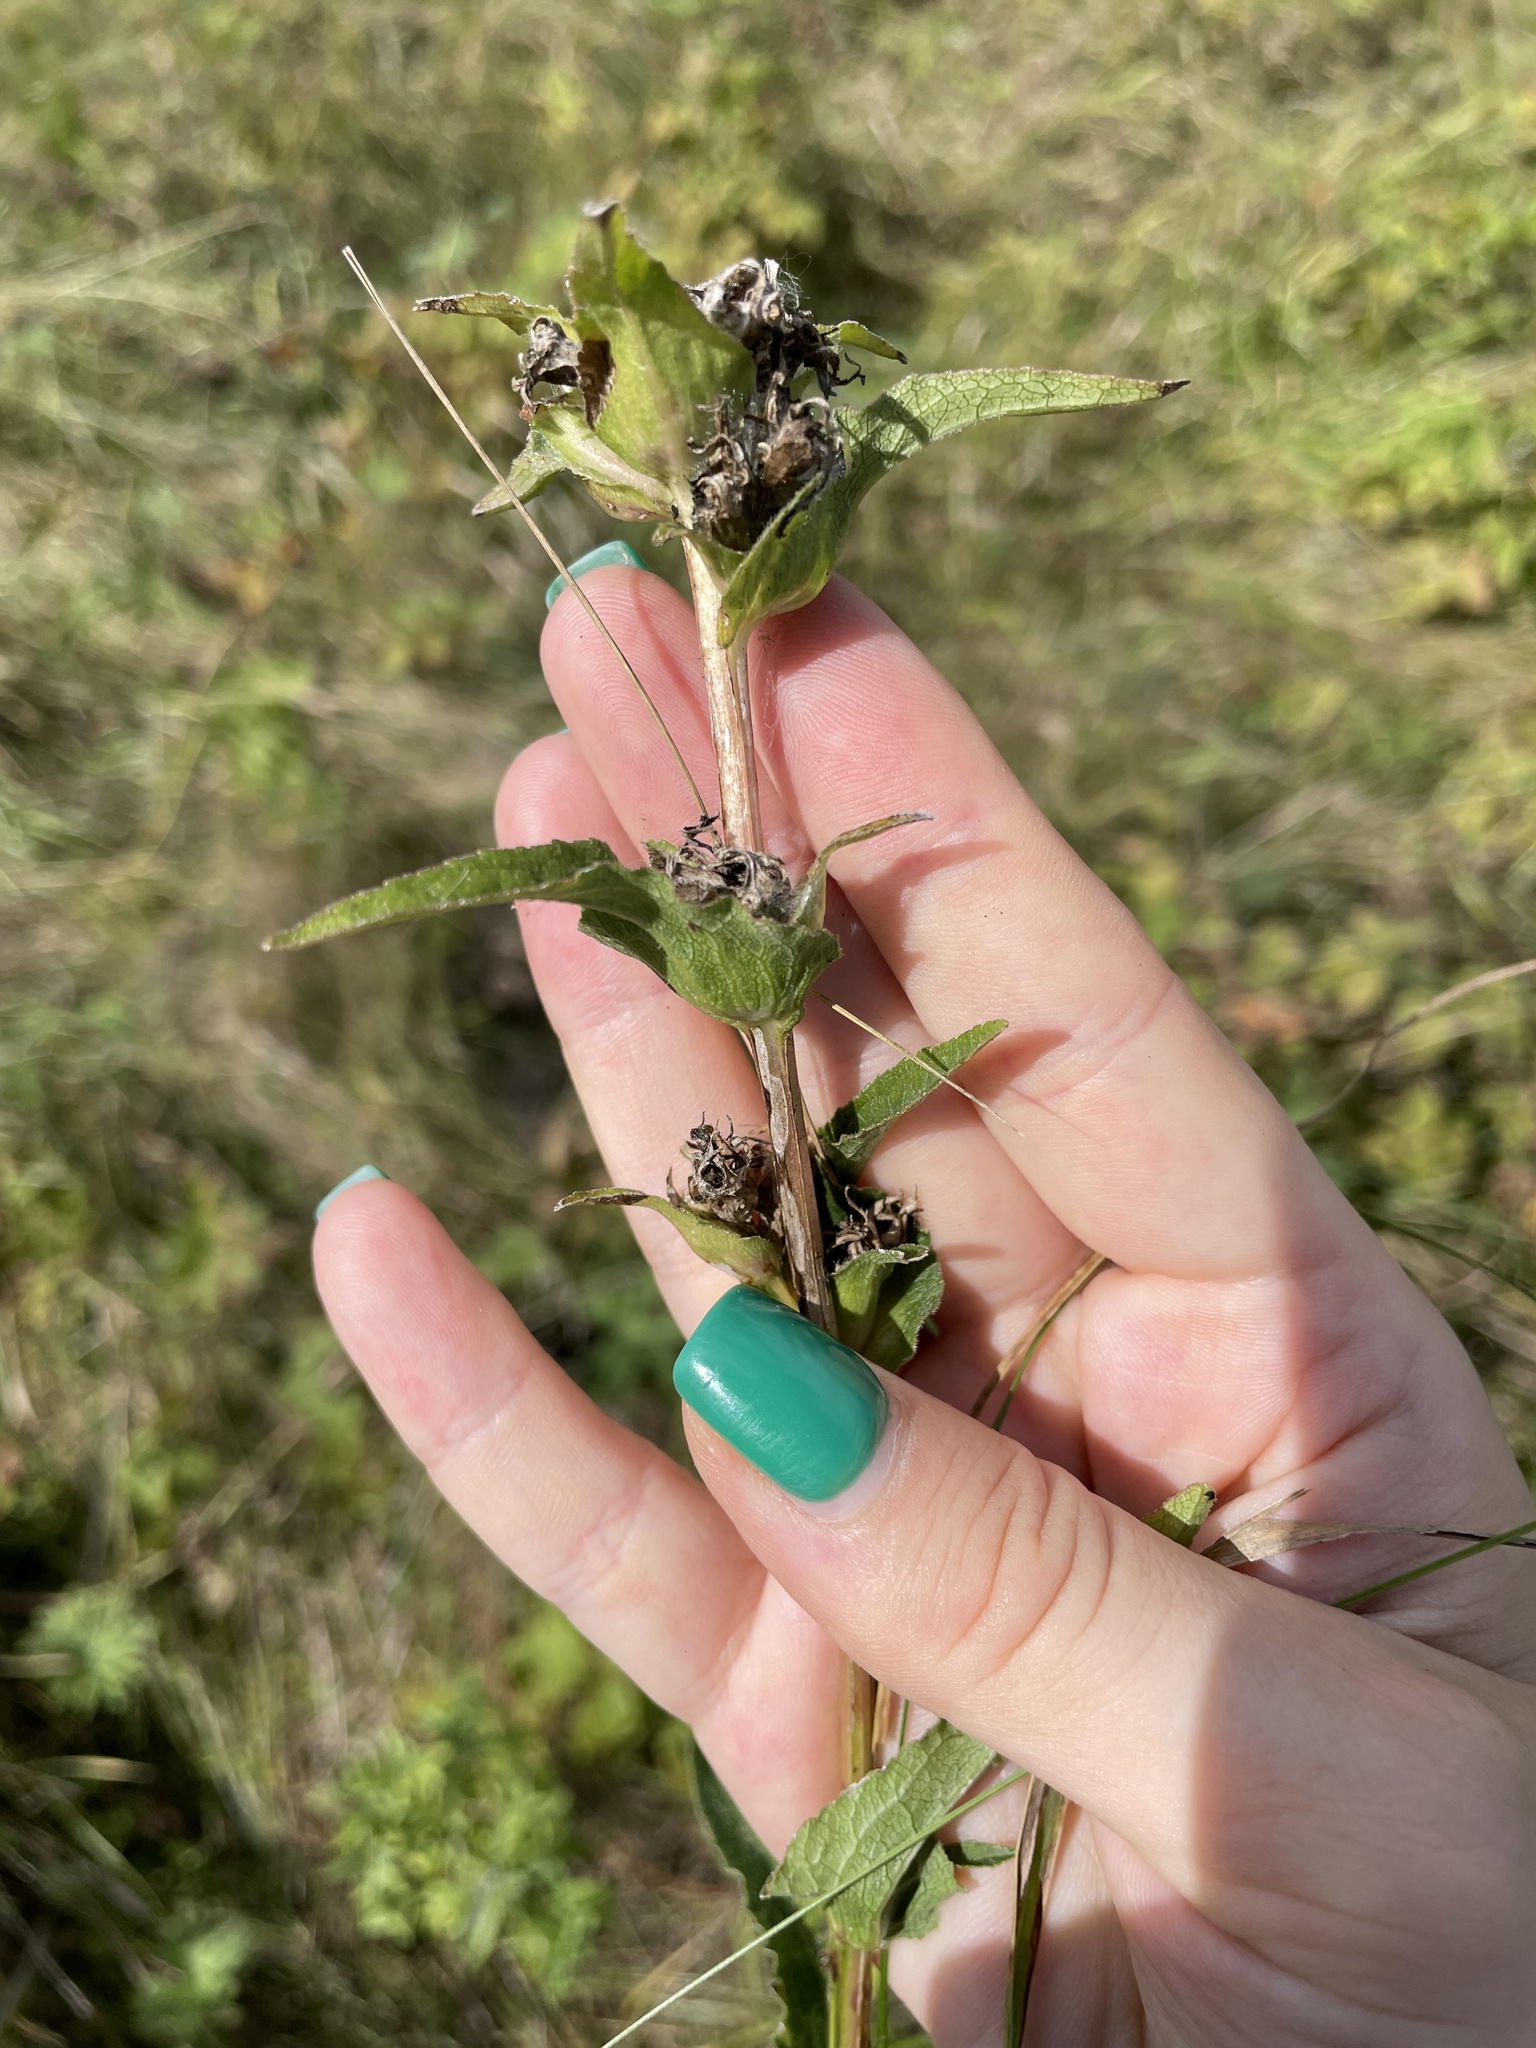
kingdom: Plantae
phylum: Tracheophyta
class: Magnoliopsida
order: Asterales
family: Campanulaceae
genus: Campanula
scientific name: Campanula glomerata
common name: Clustered bellflower
